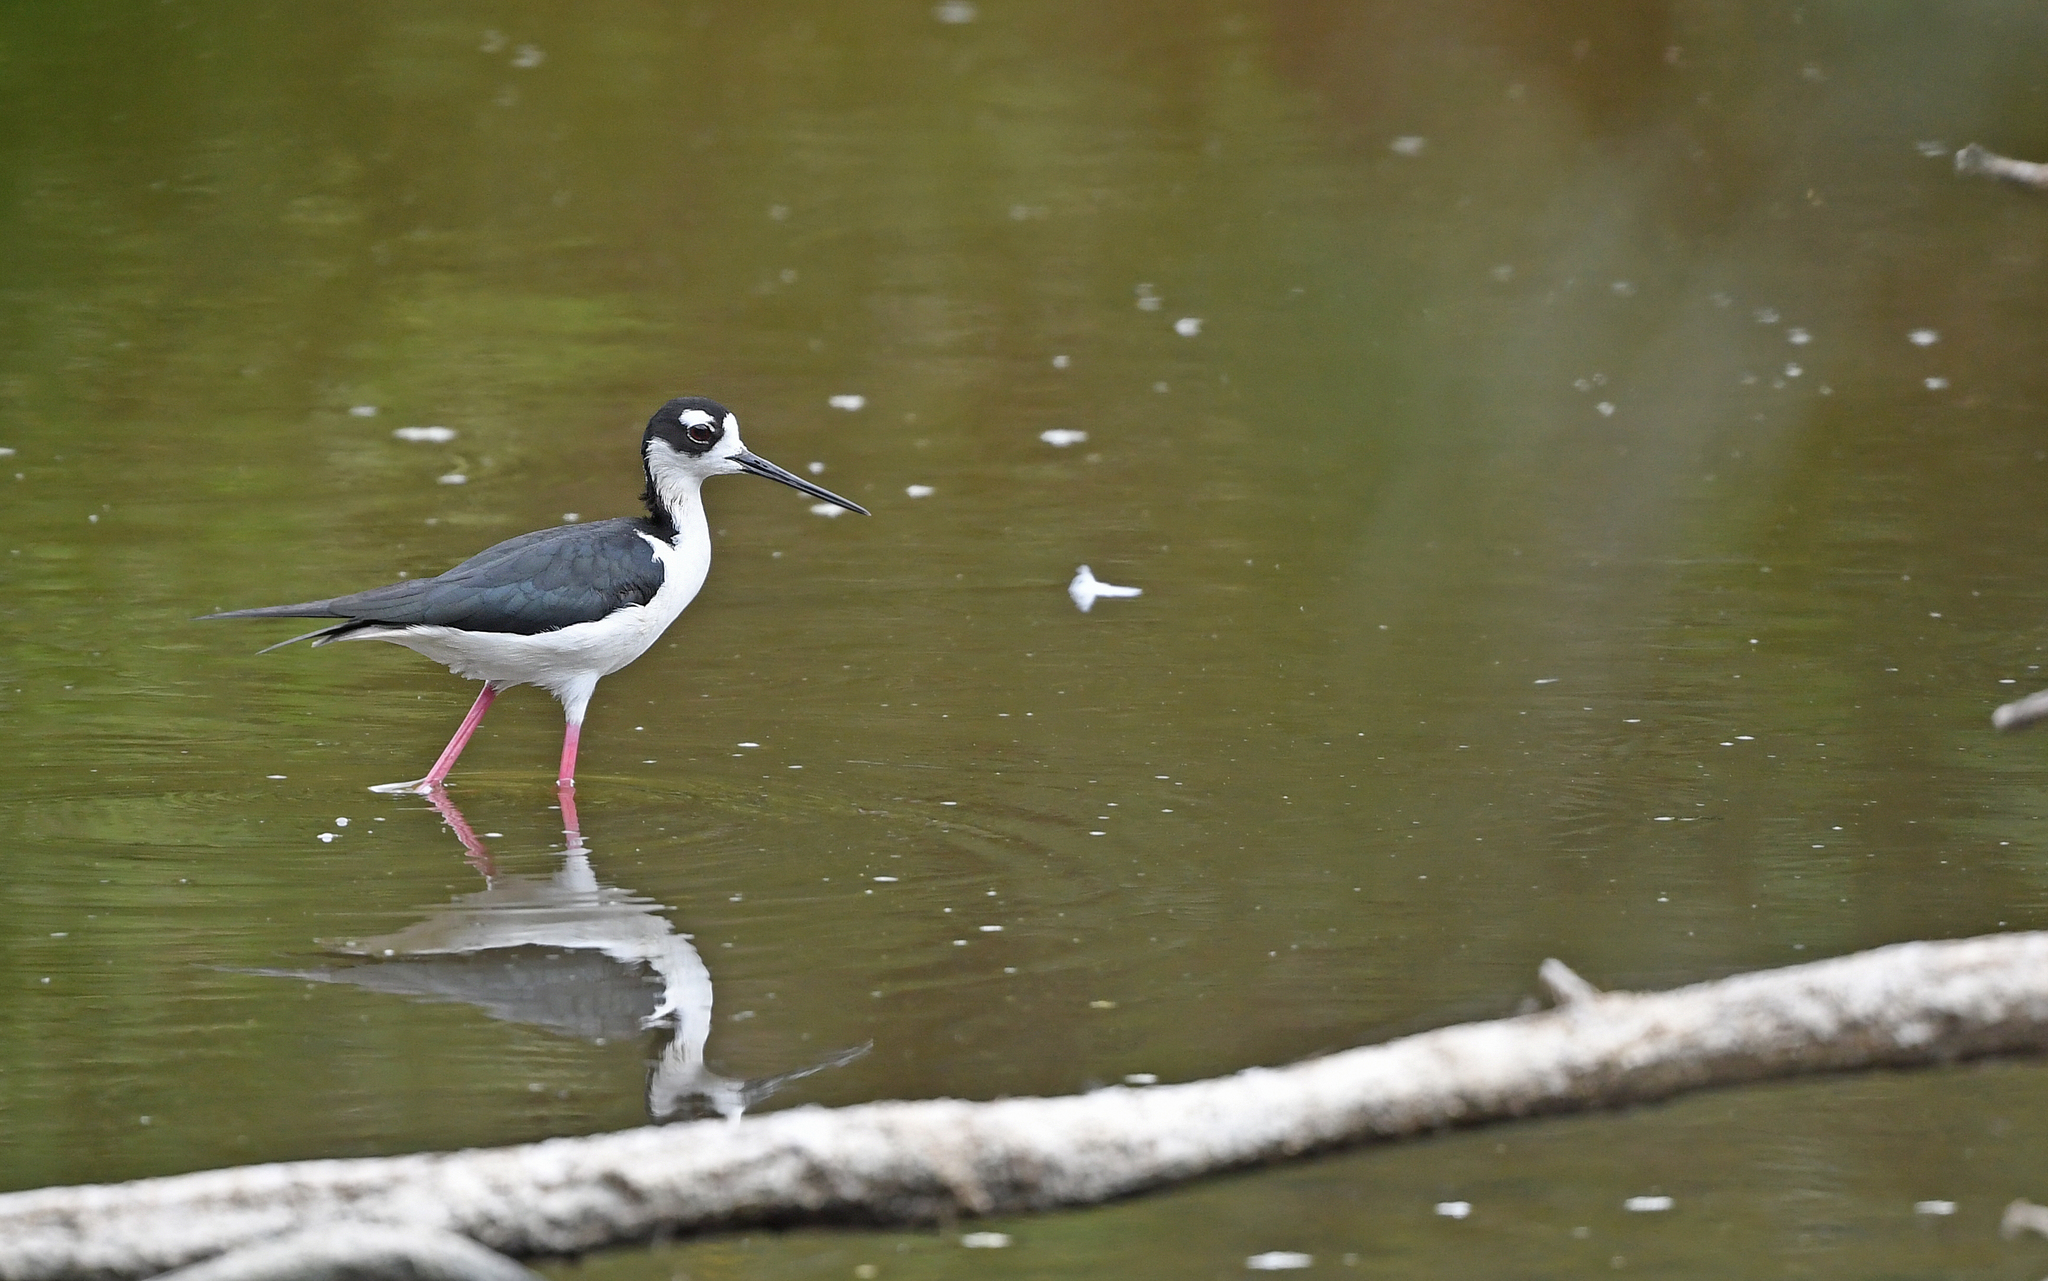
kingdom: Animalia
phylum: Chordata
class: Aves
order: Charadriiformes
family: Recurvirostridae
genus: Himantopus
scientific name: Himantopus mexicanus
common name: Black-necked stilt
